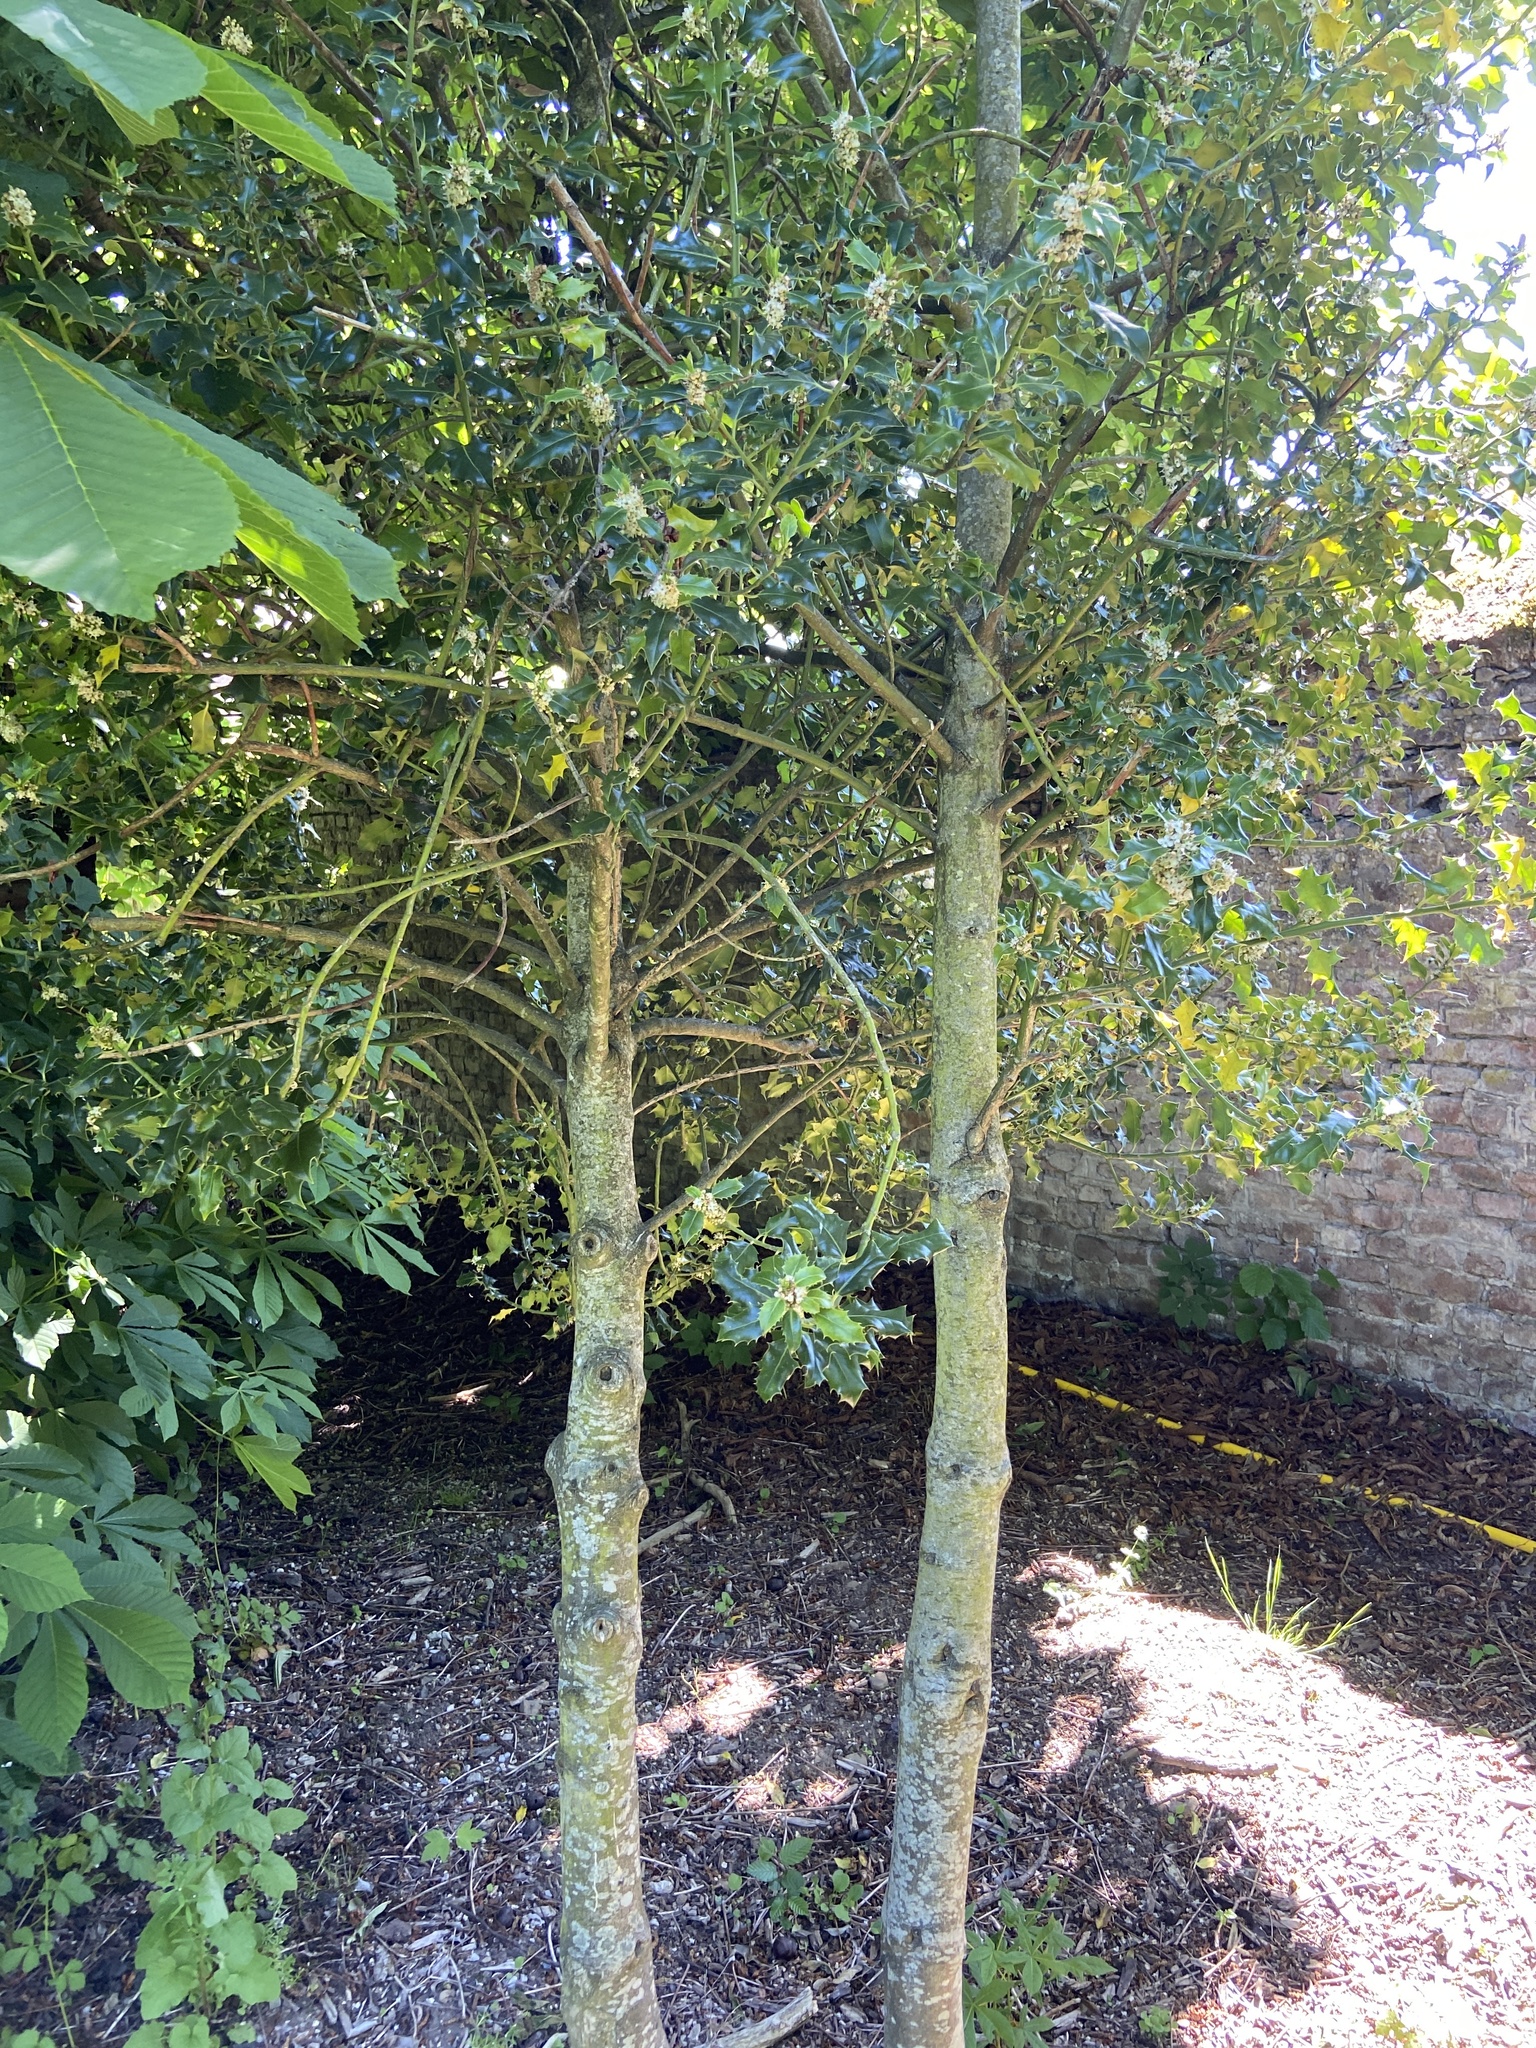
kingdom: Plantae
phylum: Tracheophyta
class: Magnoliopsida
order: Aquifoliales
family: Aquifoliaceae
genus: Ilex
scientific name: Ilex aquifolium
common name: English holly
